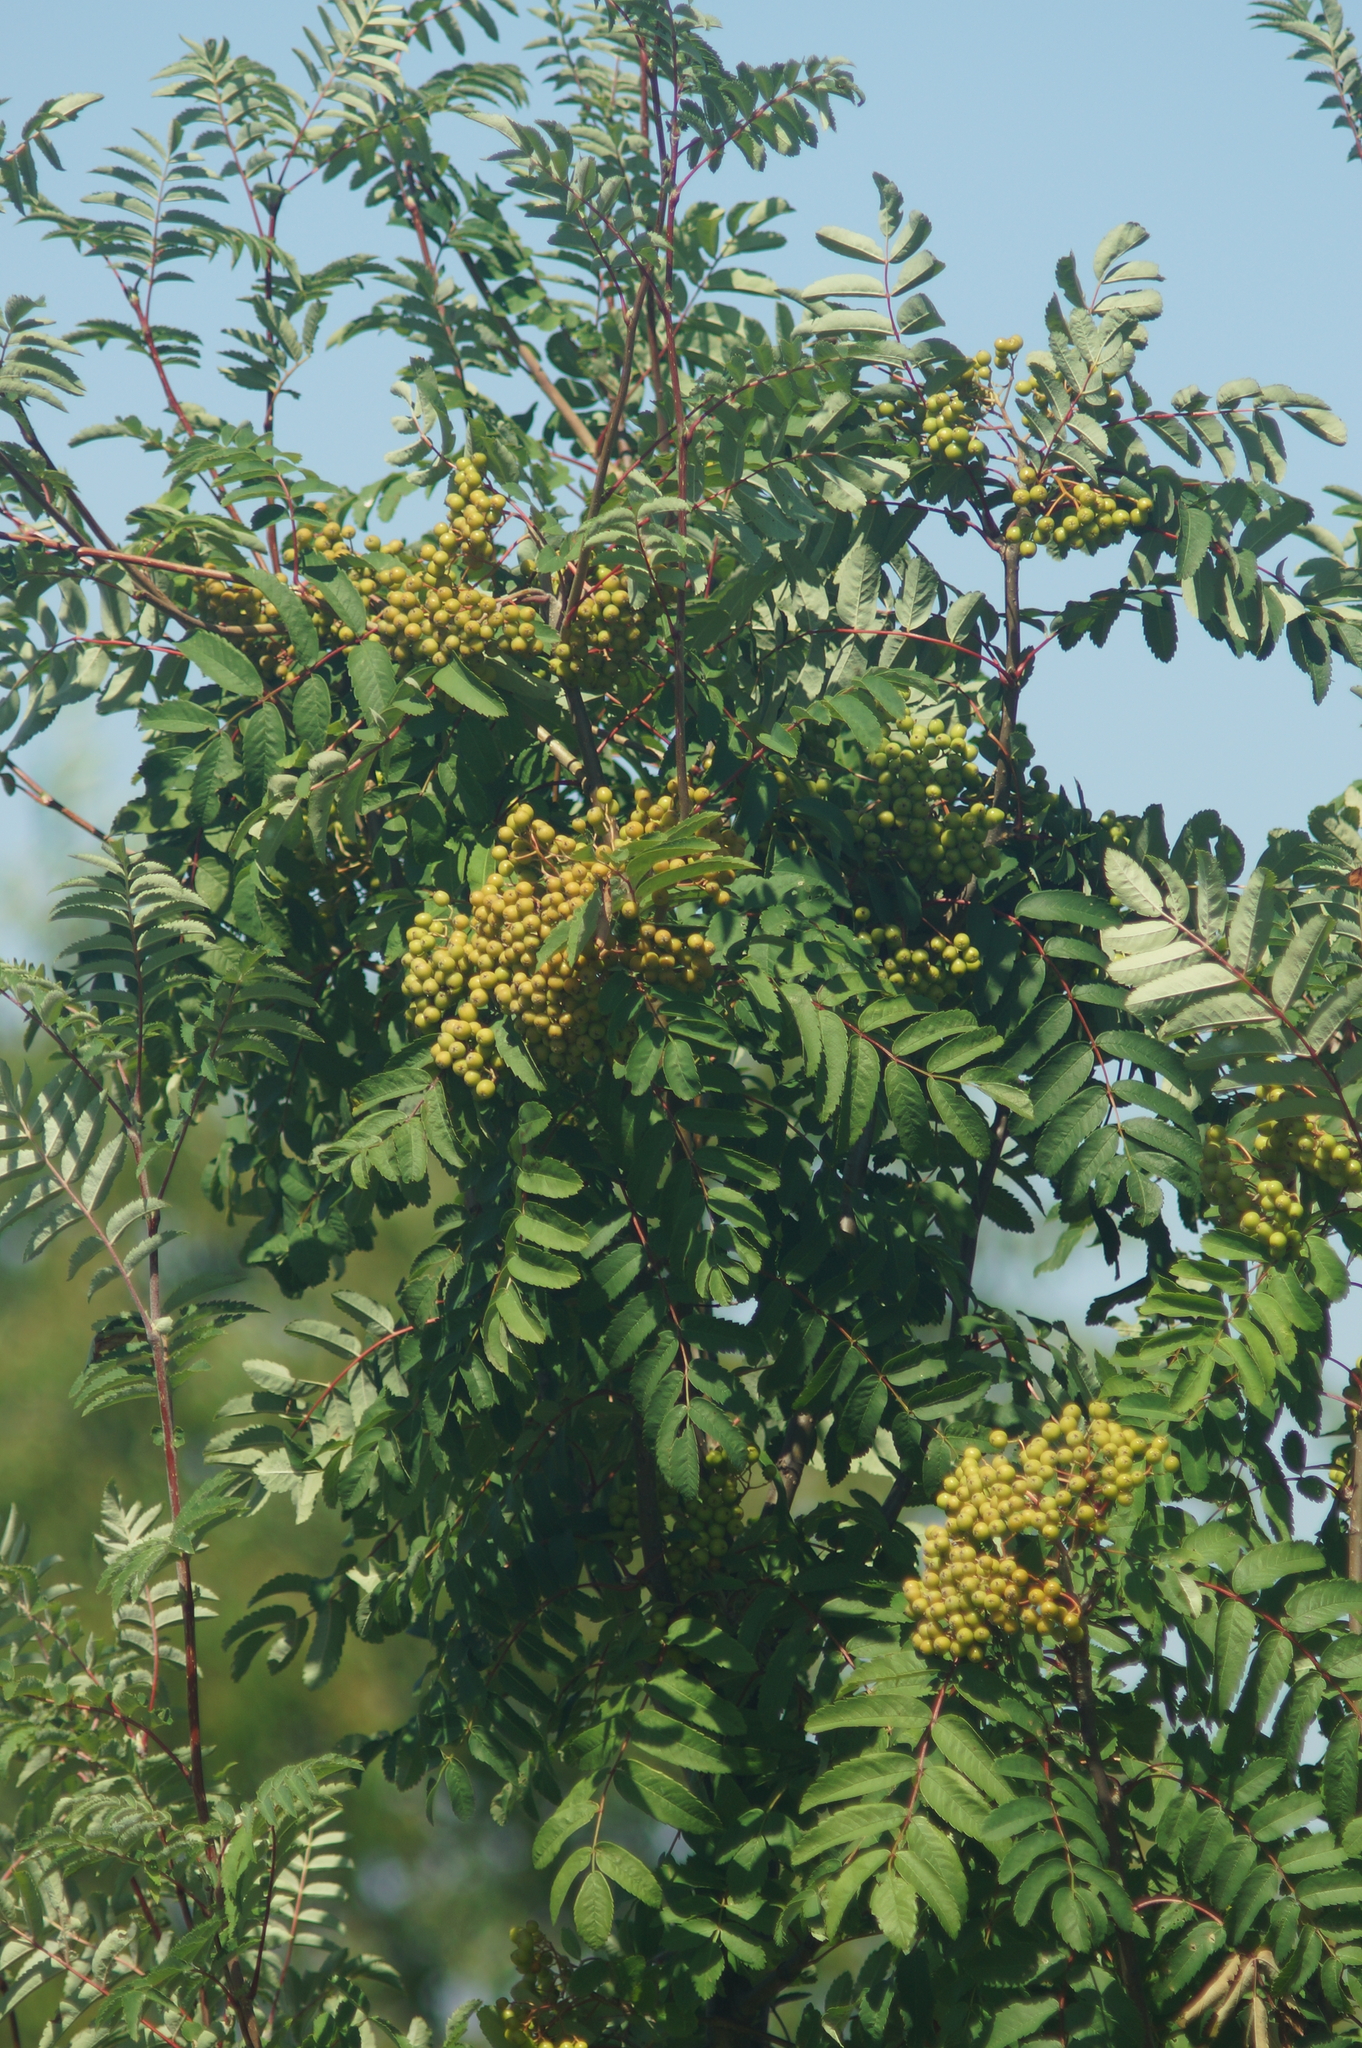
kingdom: Plantae
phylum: Tracheophyta
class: Magnoliopsida
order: Rosales
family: Rosaceae
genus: Sorbus
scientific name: Sorbus aucuparia
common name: Rowan
